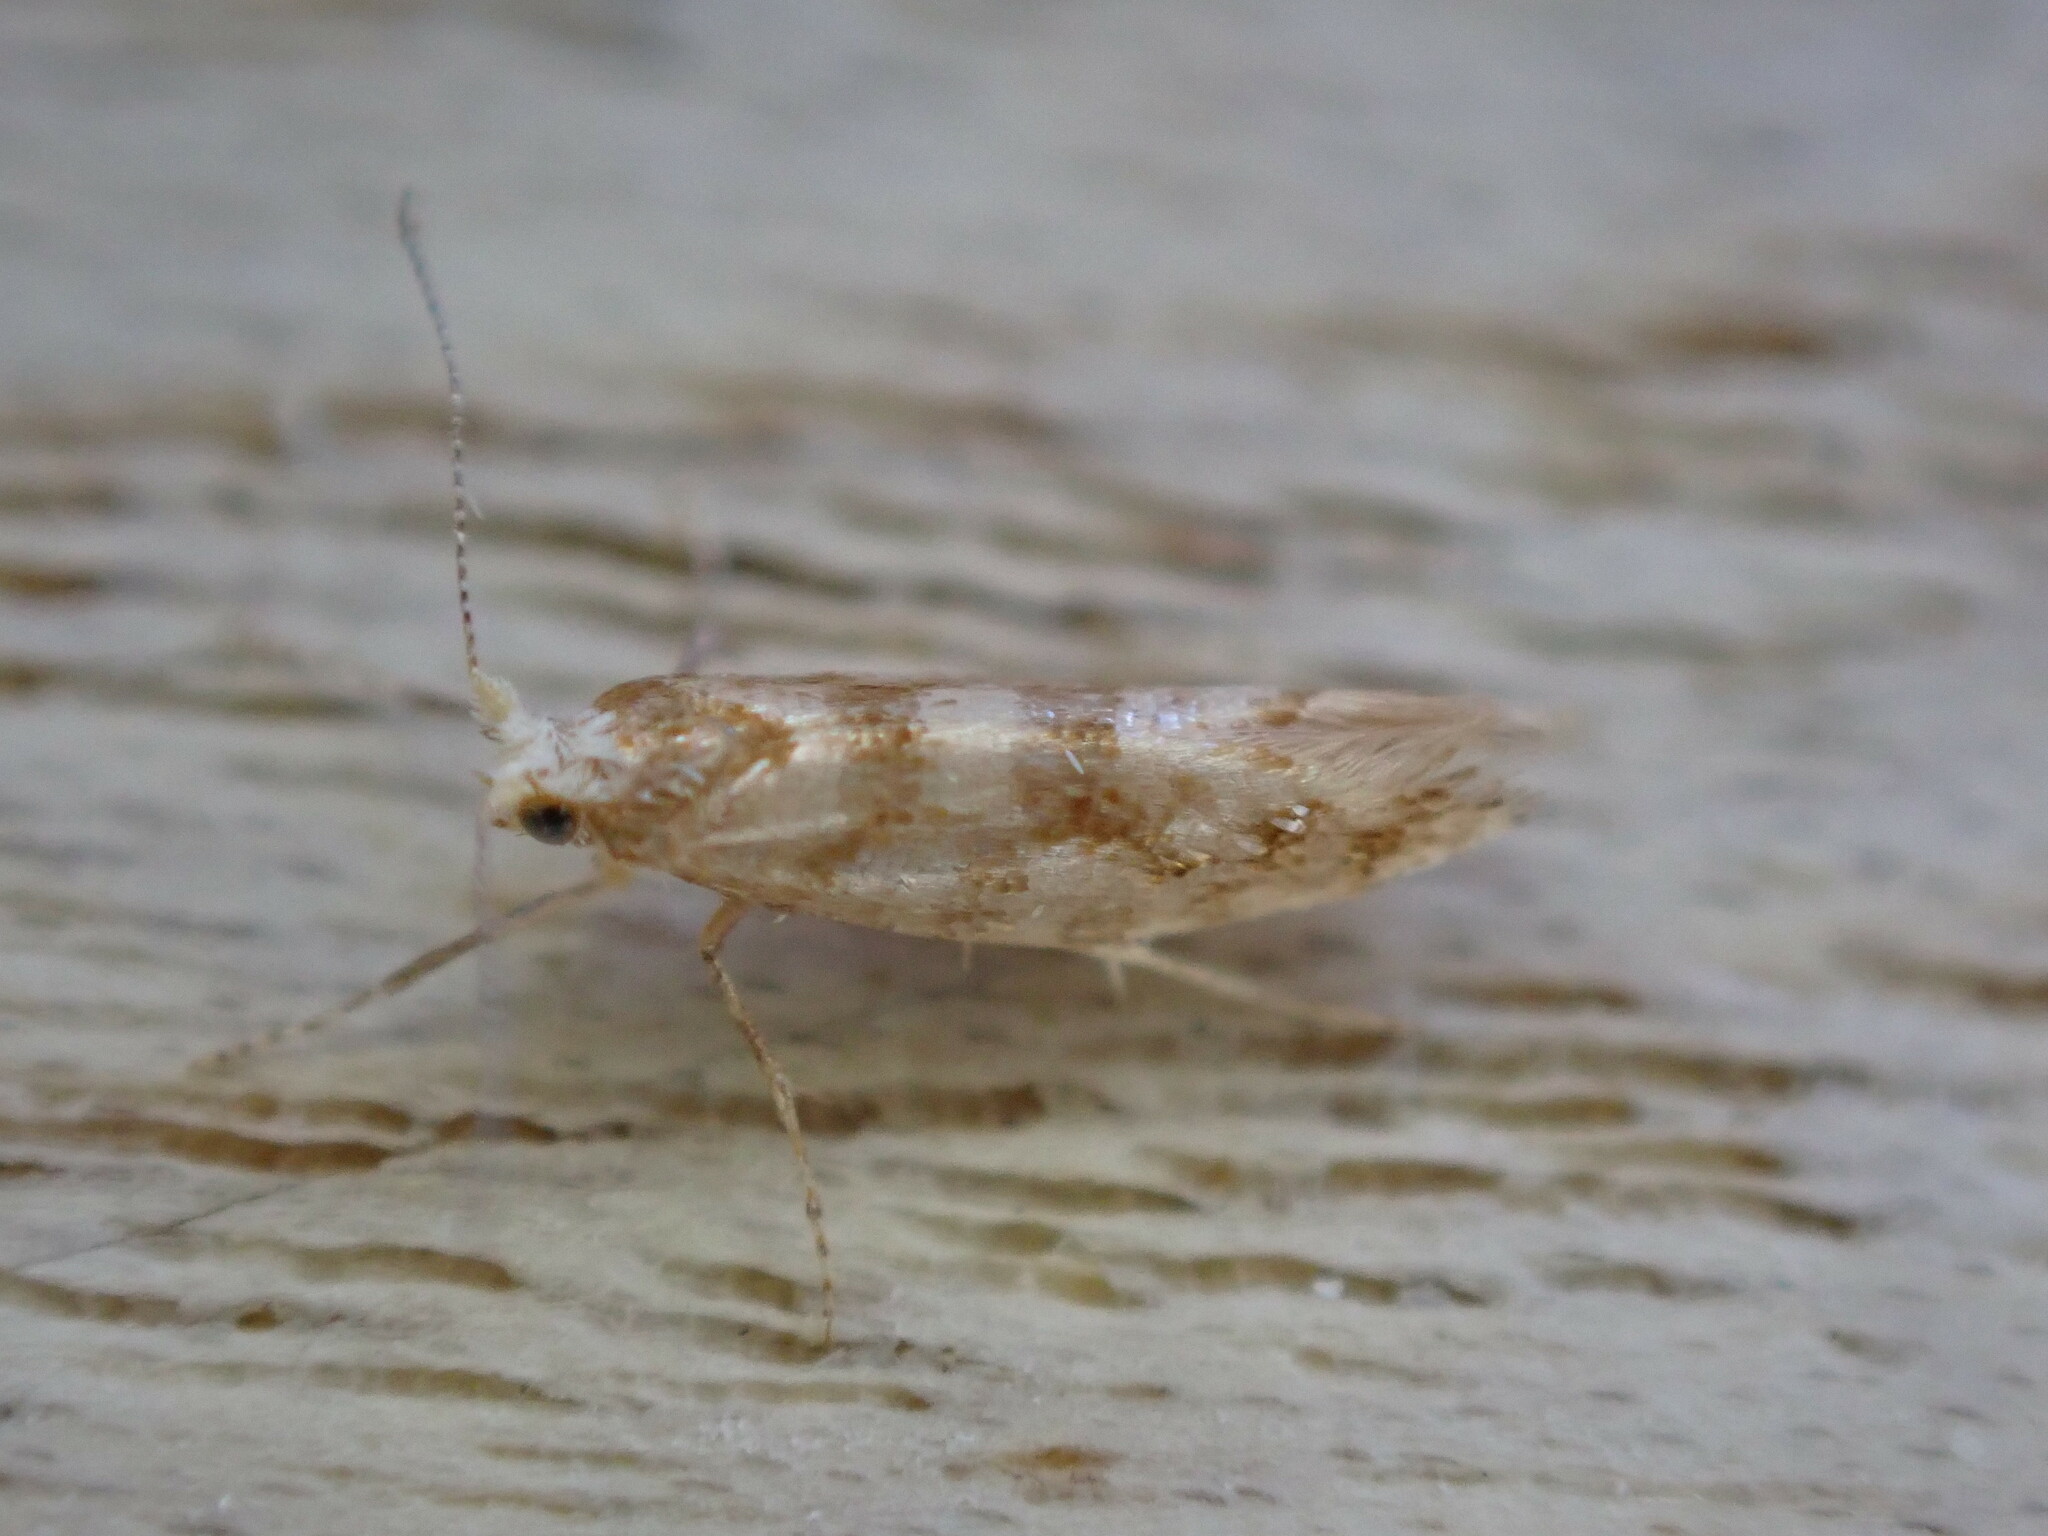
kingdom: Animalia
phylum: Arthropoda
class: Insecta
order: Lepidoptera
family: Argyresthiidae
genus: Argyresthia
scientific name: Argyresthia cupressella
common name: Cypress tip moth
